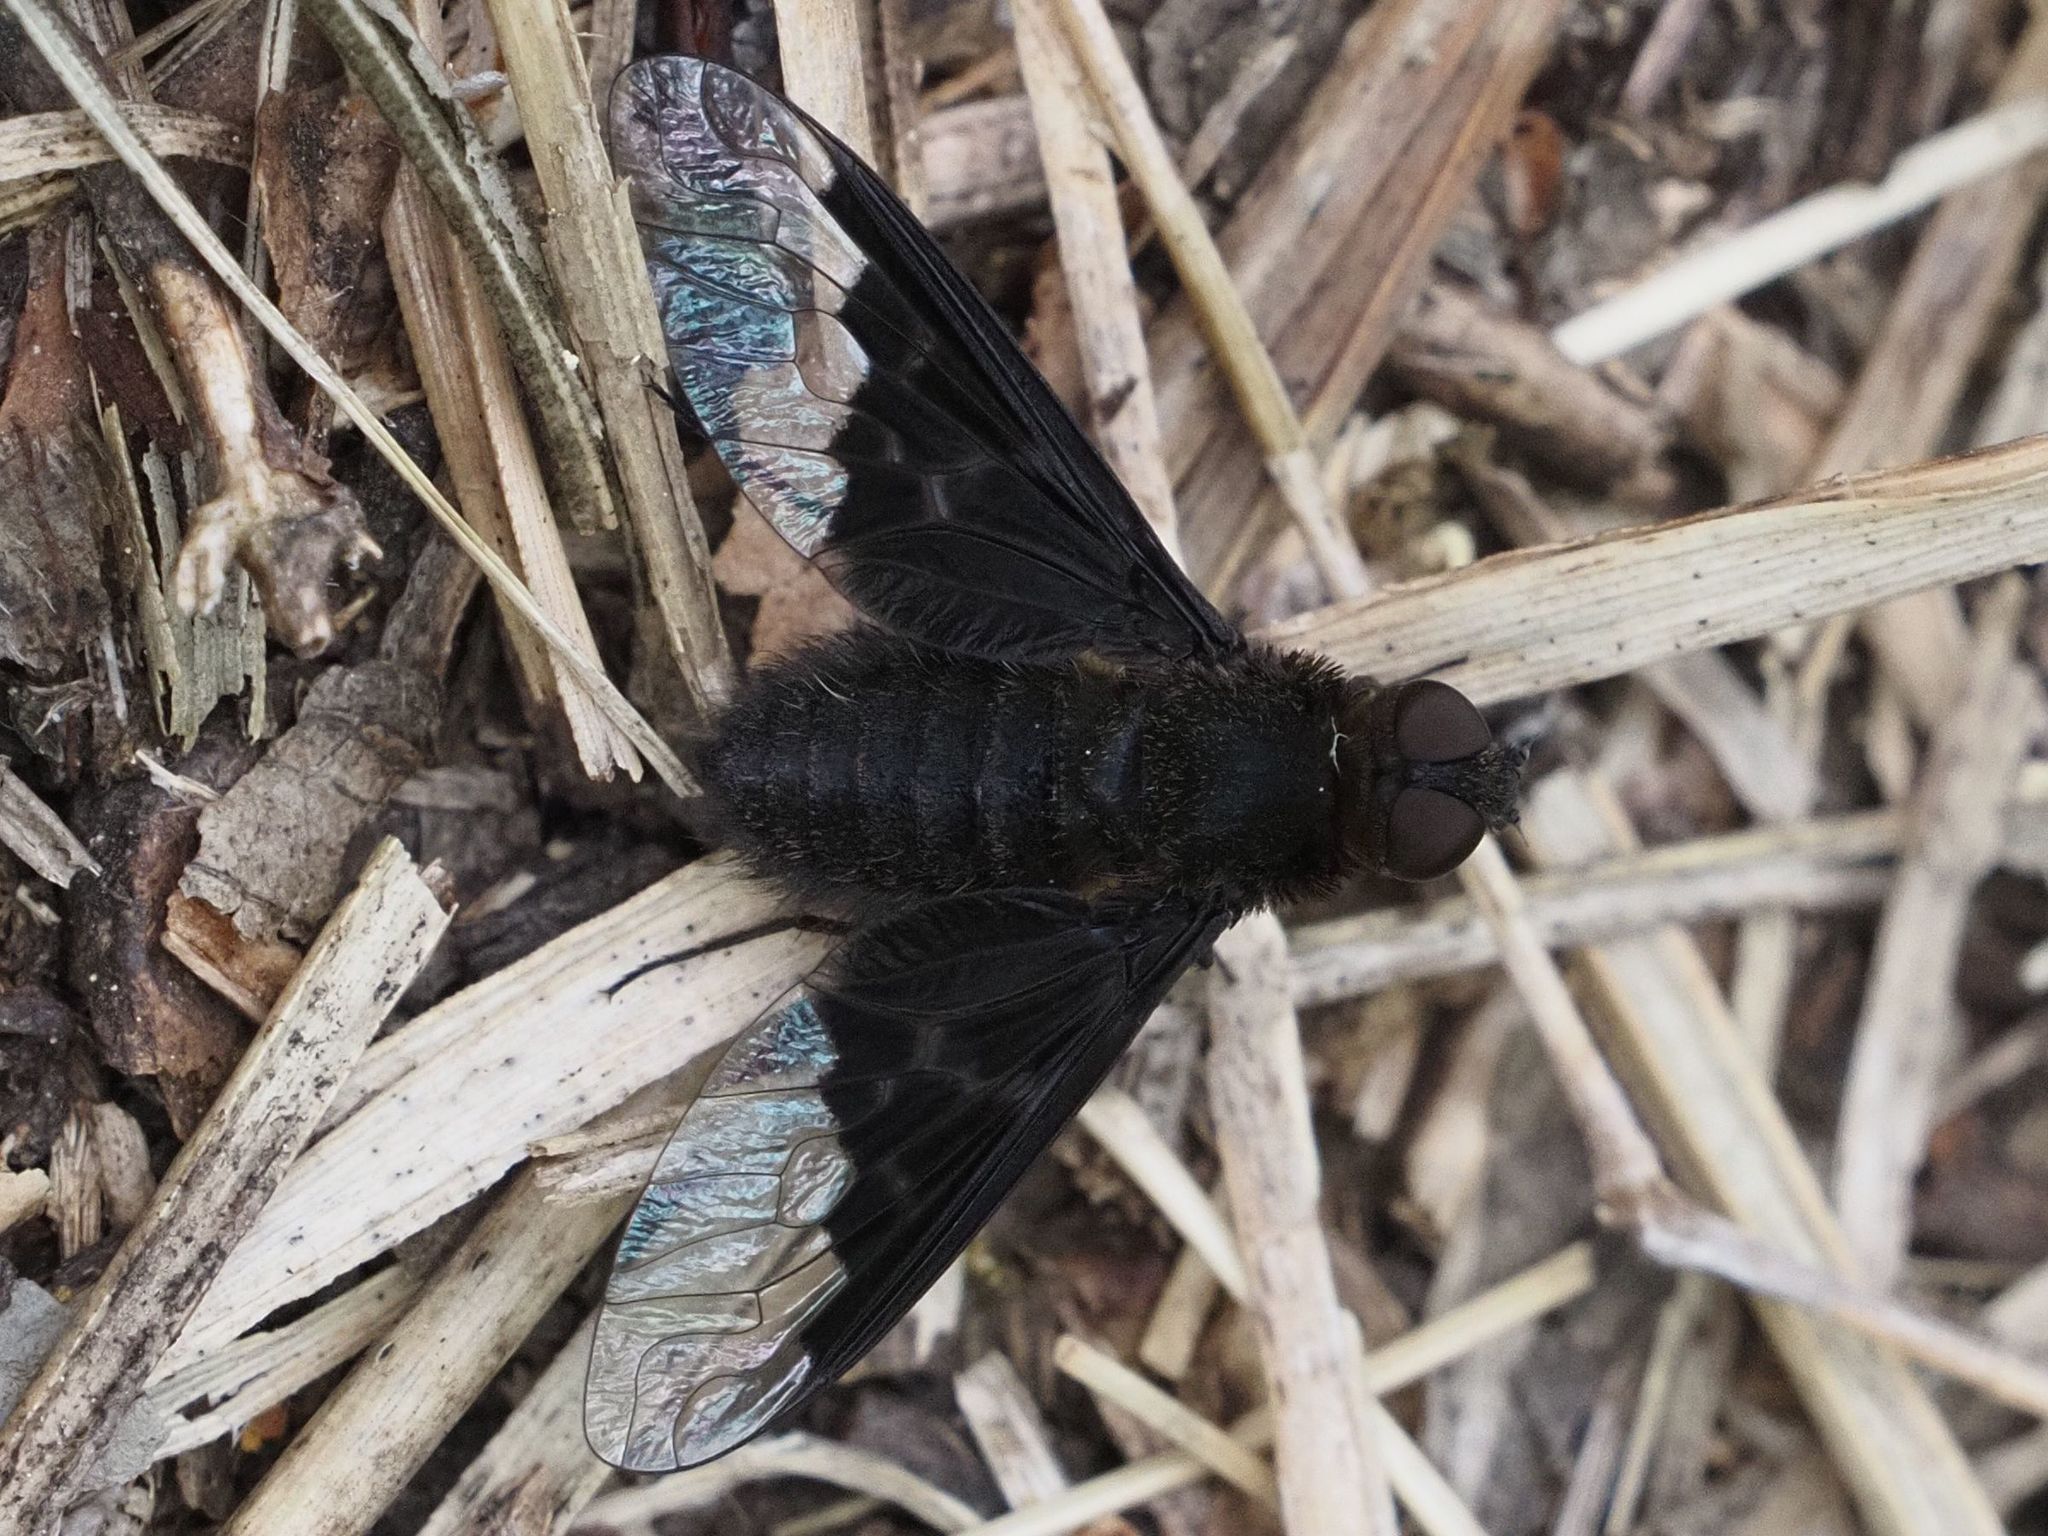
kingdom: Animalia
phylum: Arthropoda
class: Insecta
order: Diptera
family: Bombyliidae
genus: Hemipenthes
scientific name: Hemipenthes morio
